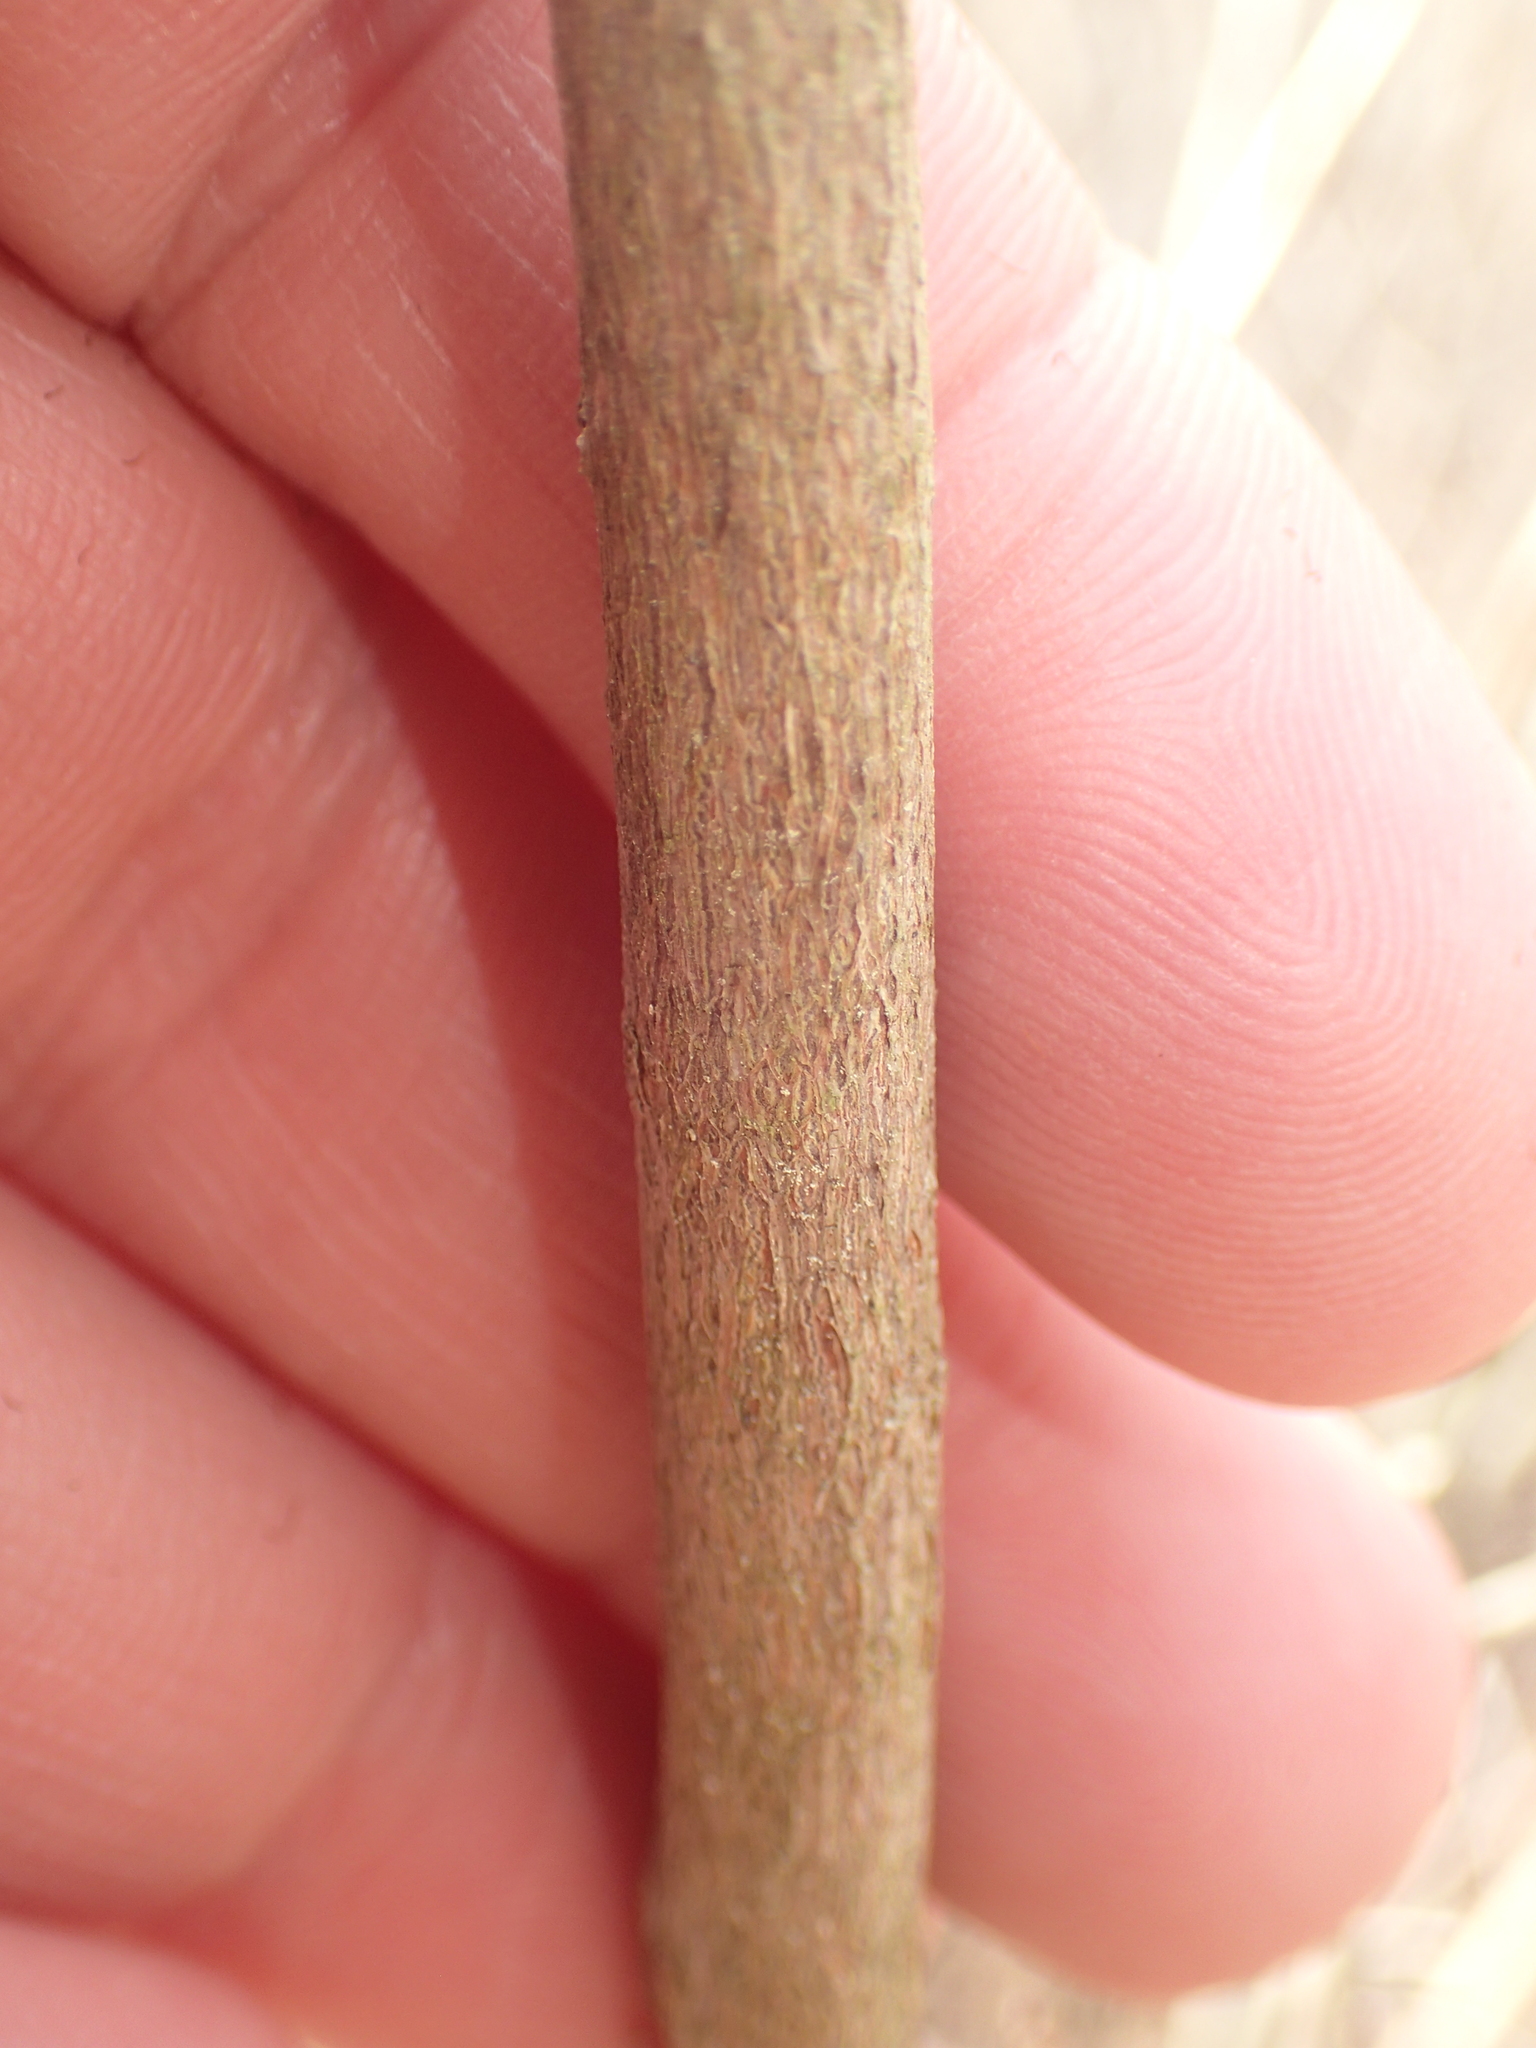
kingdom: Plantae
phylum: Tracheophyta
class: Magnoliopsida
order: Ericales
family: Ericaceae
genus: Rhododendron
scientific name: Rhododendron viscosum
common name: Clammy azalea
